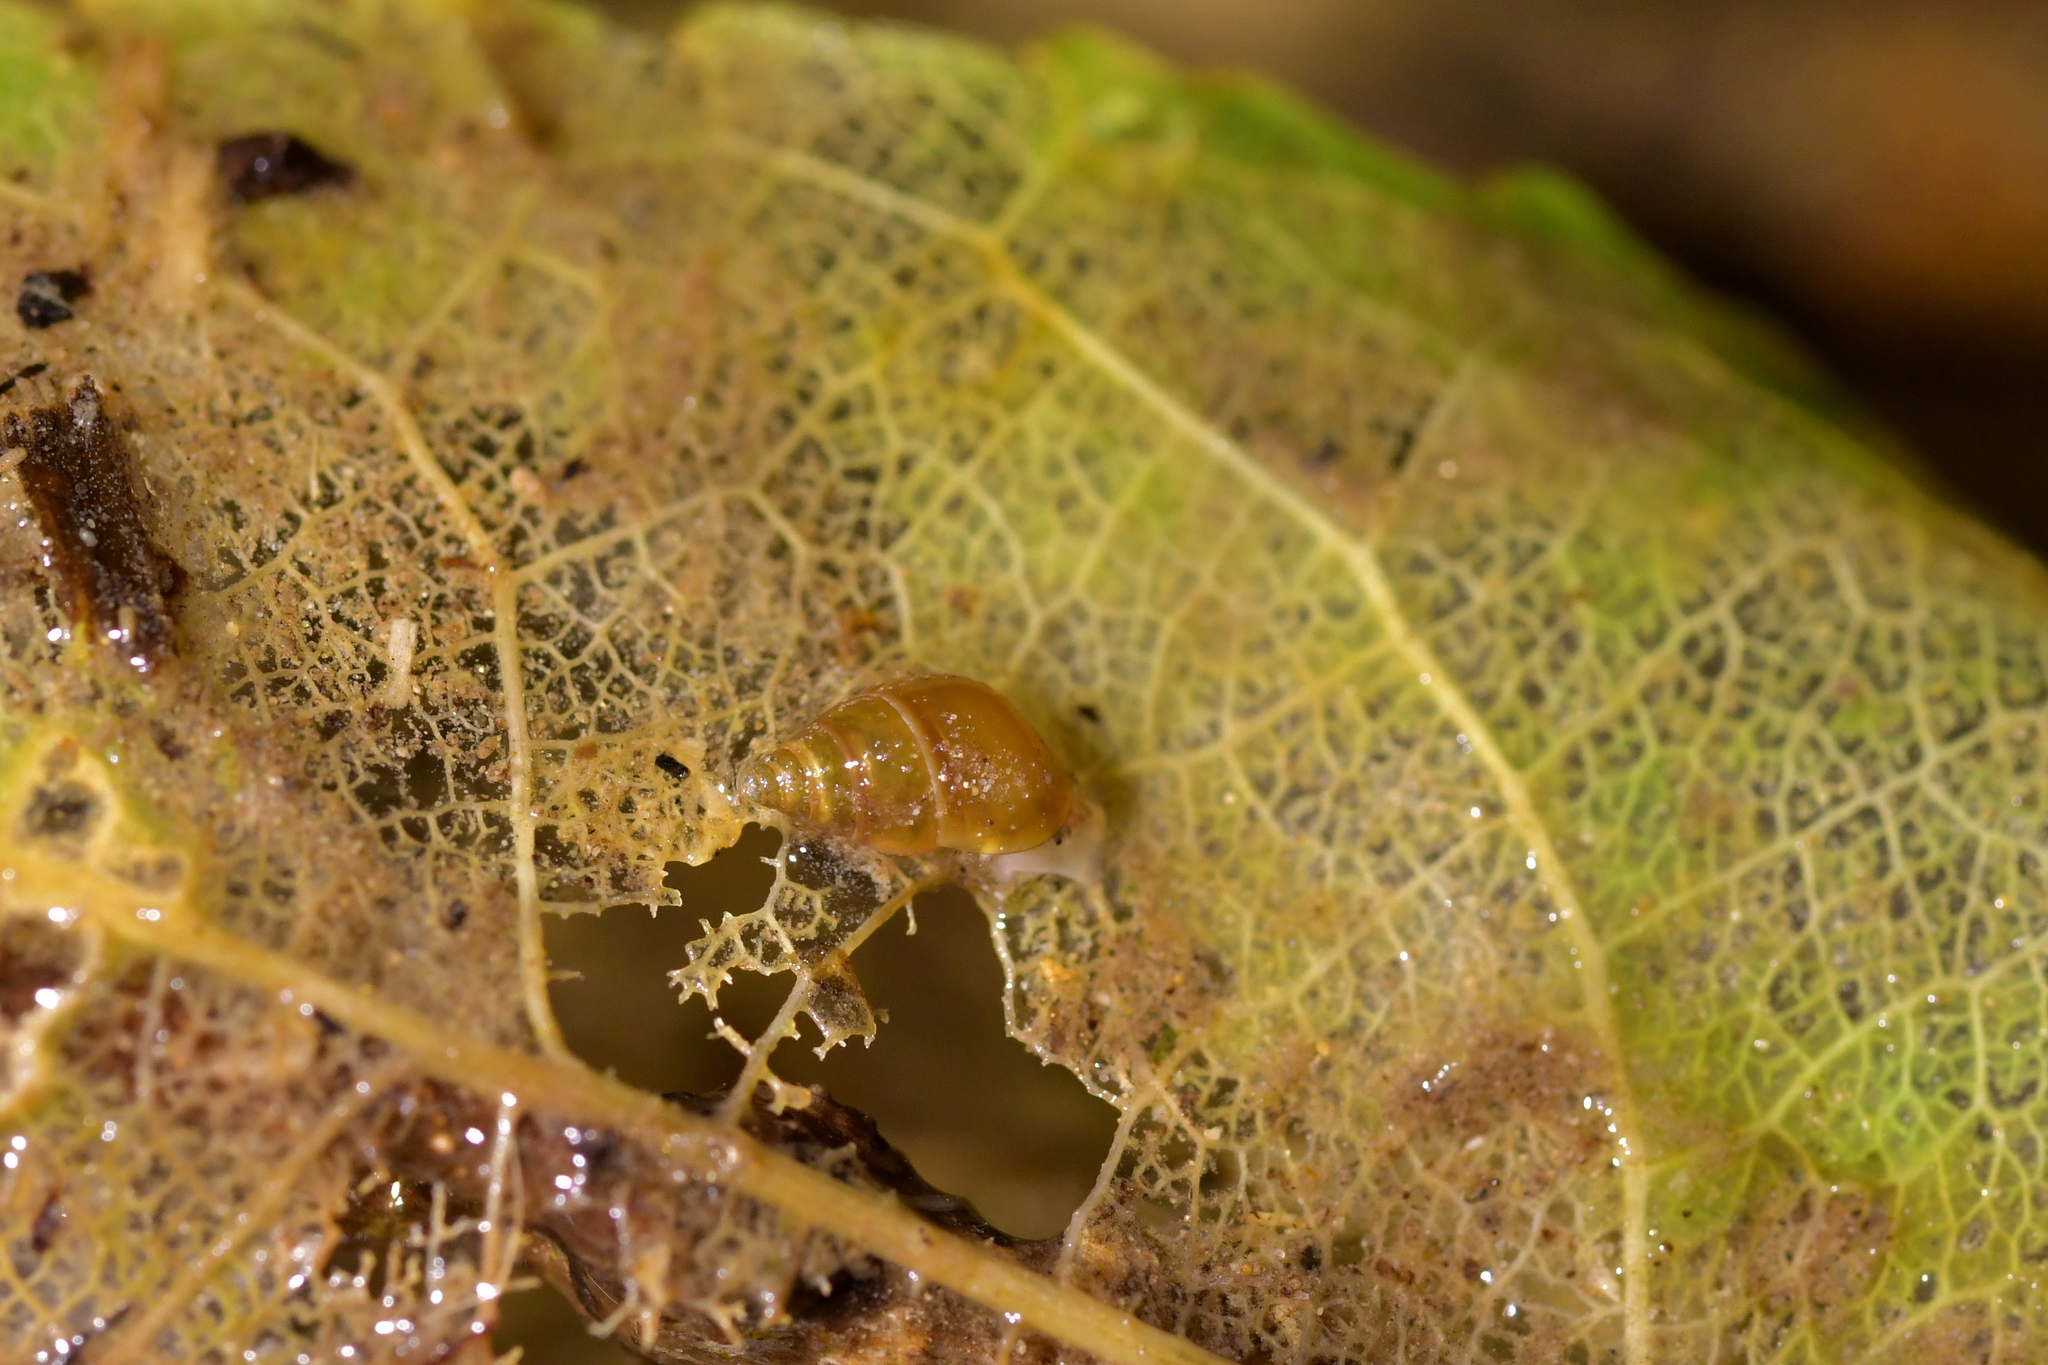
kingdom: Animalia
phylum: Mollusca
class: Gastropoda
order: Littorinimorpha
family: Tateidae
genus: Potamopyrgus
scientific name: Potamopyrgus antipodarum
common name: Jenkins' spire snail
